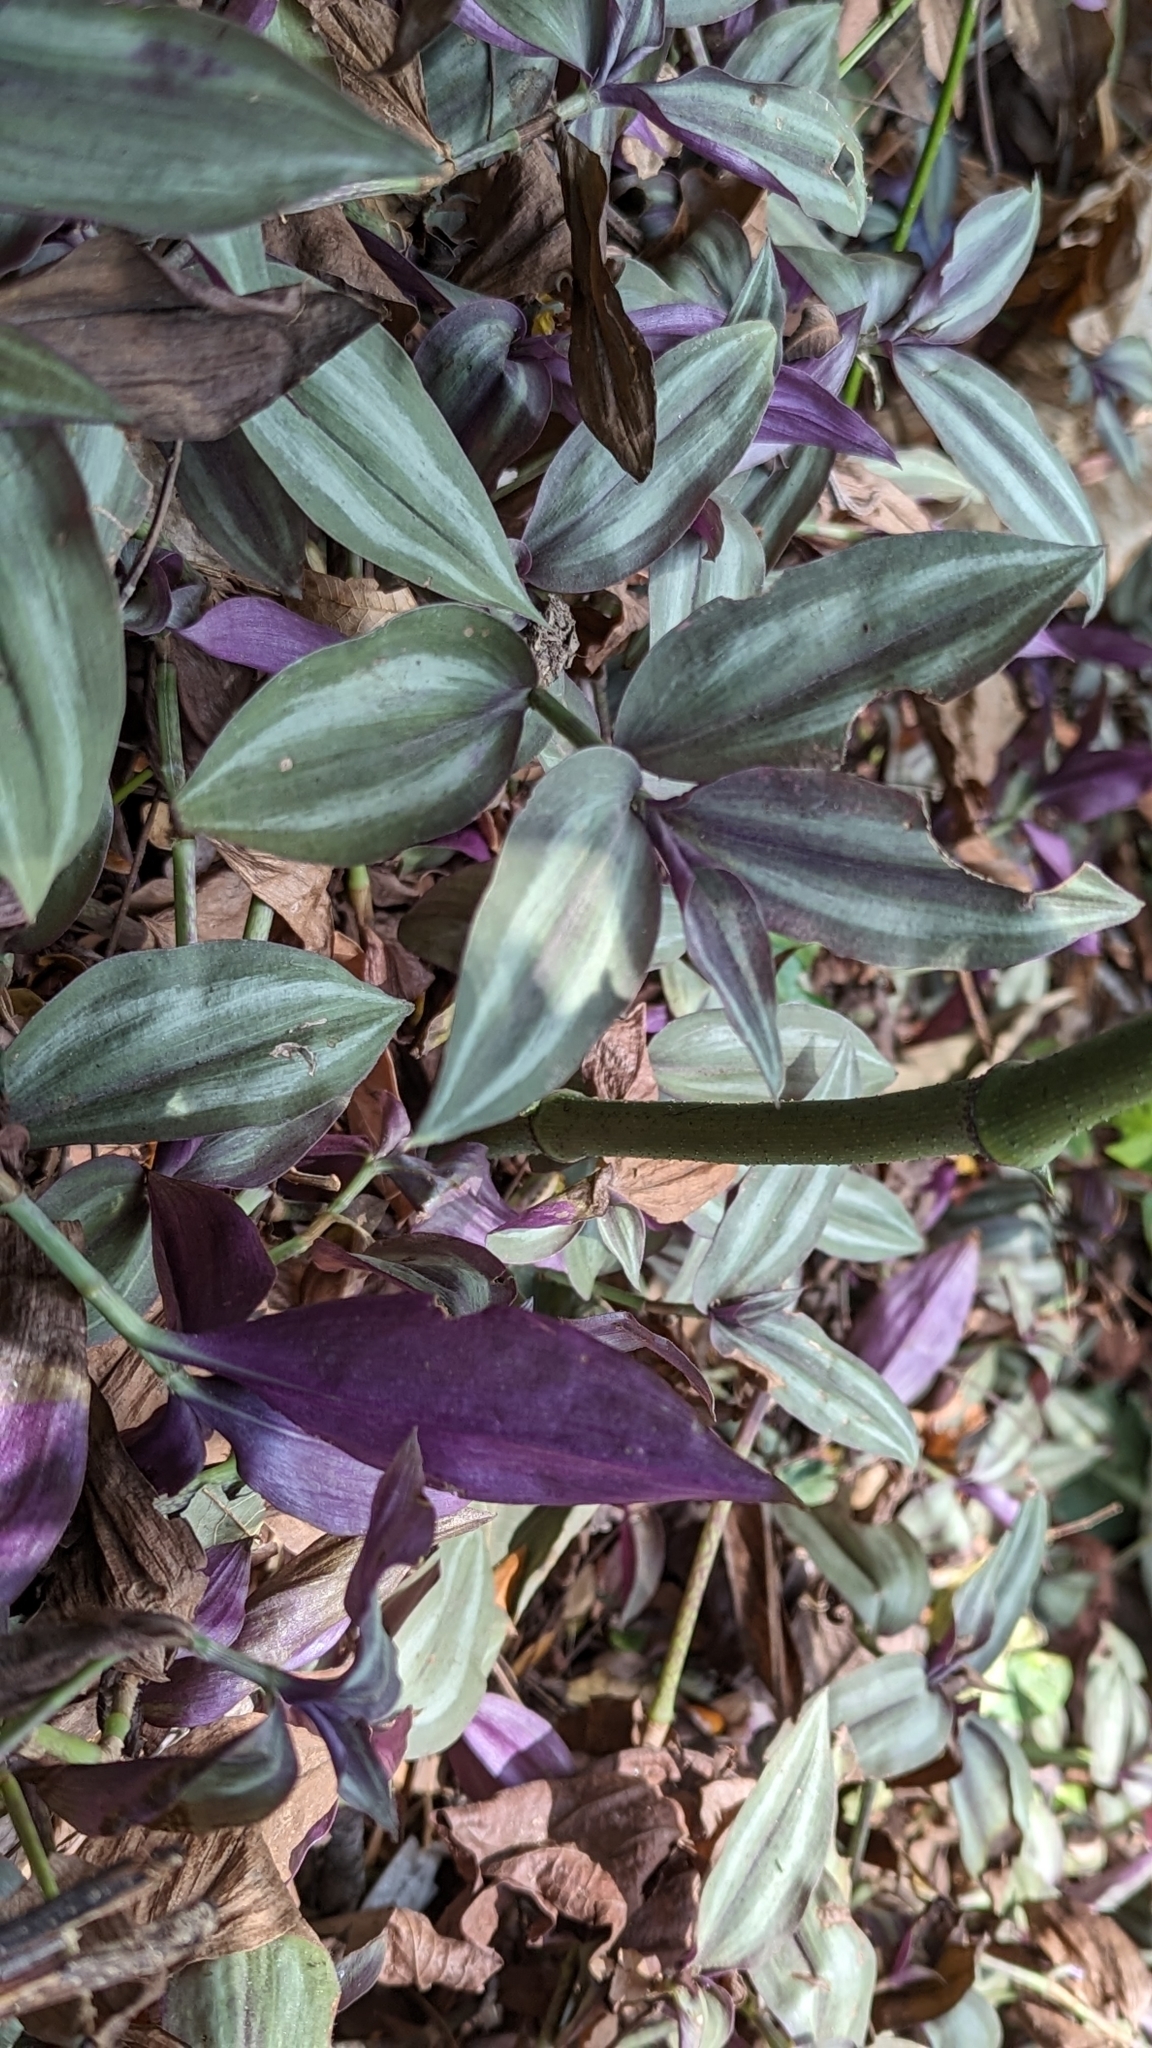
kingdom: Plantae
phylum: Tracheophyta
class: Liliopsida
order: Commelinales
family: Commelinaceae
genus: Tradescantia
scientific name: Tradescantia zebrina
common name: Inchplant
